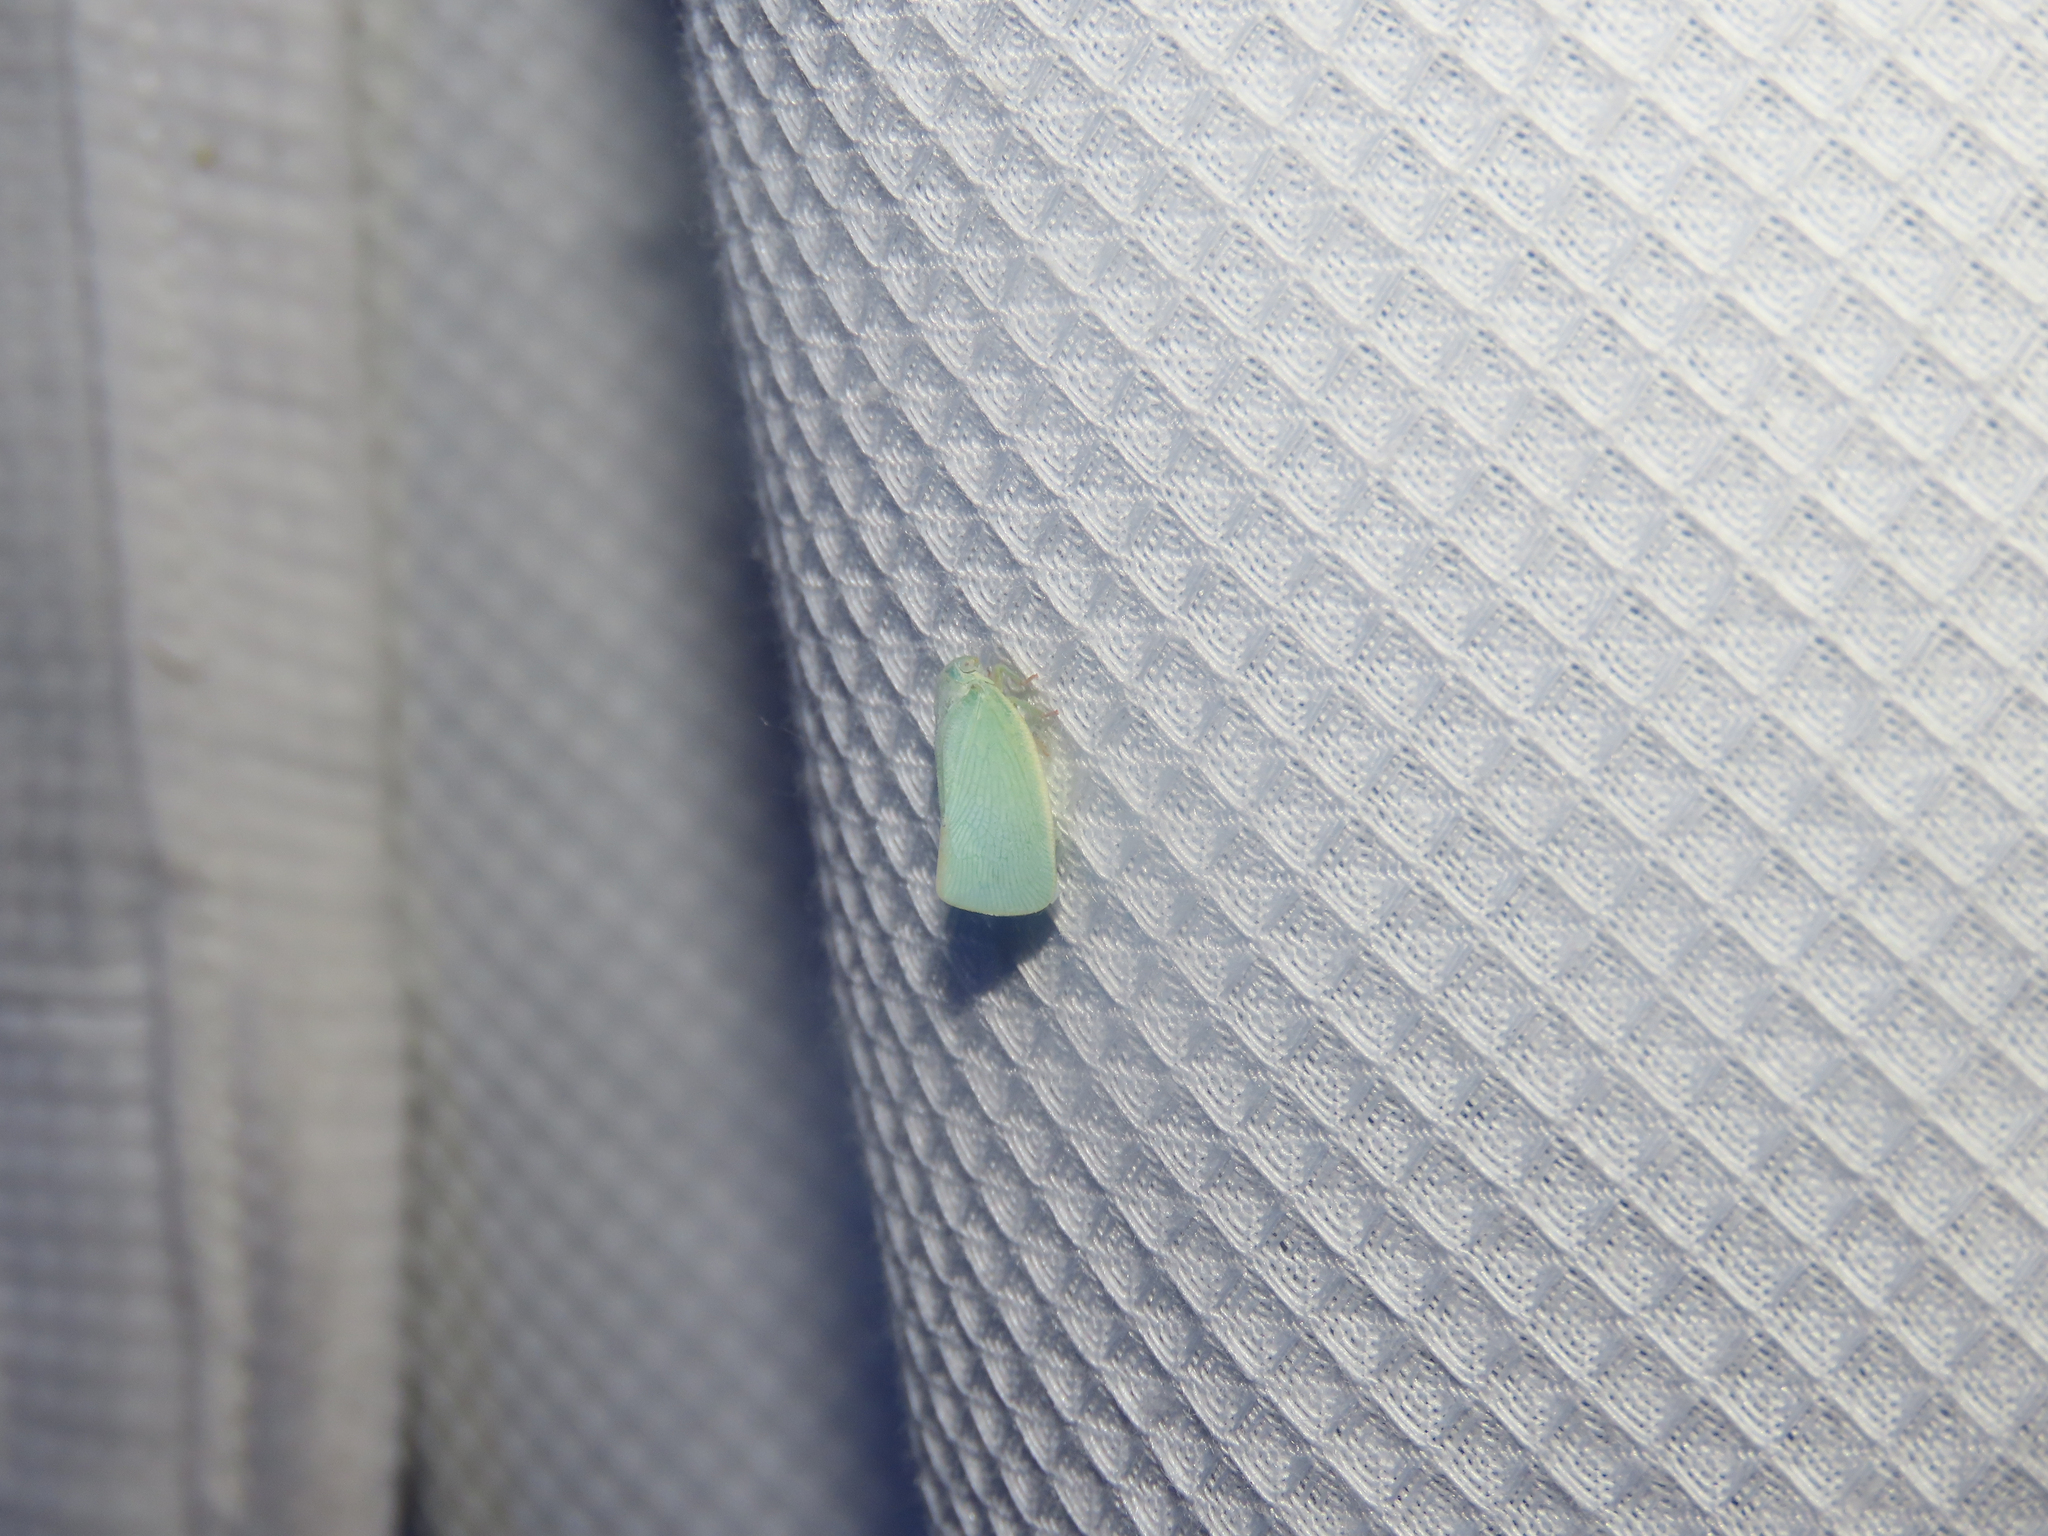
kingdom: Animalia
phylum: Arthropoda
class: Insecta
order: Hemiptera
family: Flatidae
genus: Flatormenis
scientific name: Flatormenis proxima
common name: Northern flatid planthopper
